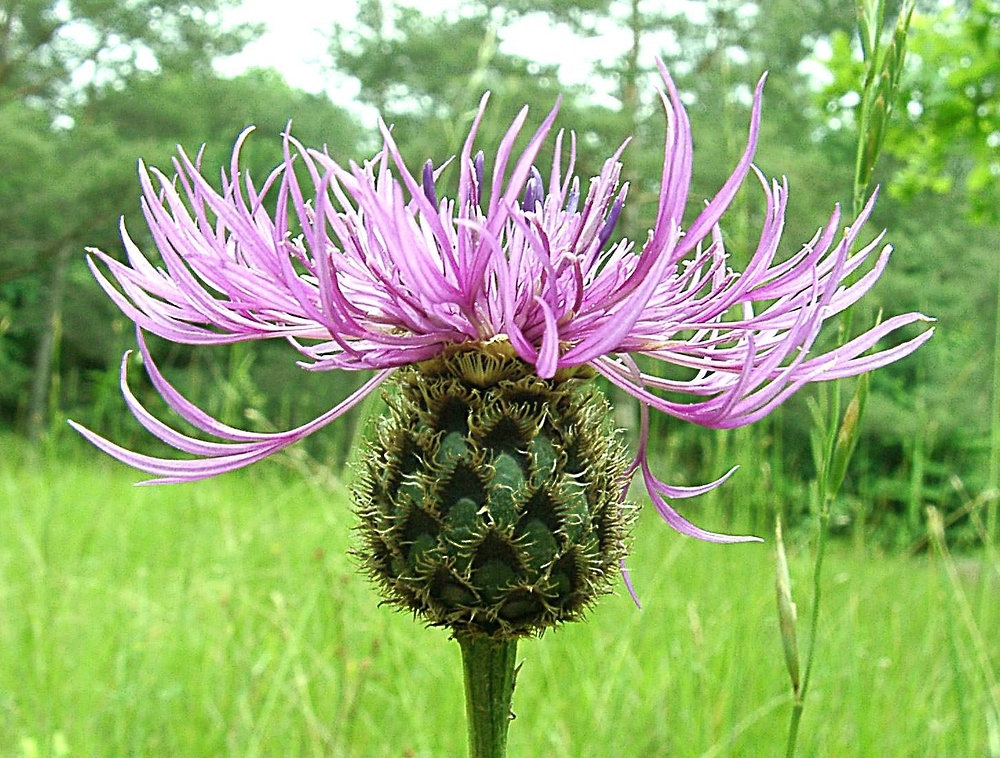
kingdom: Plantae
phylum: Tracheophyta
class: Magnoliopsida
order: Asterales
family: Asteraceae
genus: Centaurea
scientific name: Centaurea scabiosa
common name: Greater knapweed
